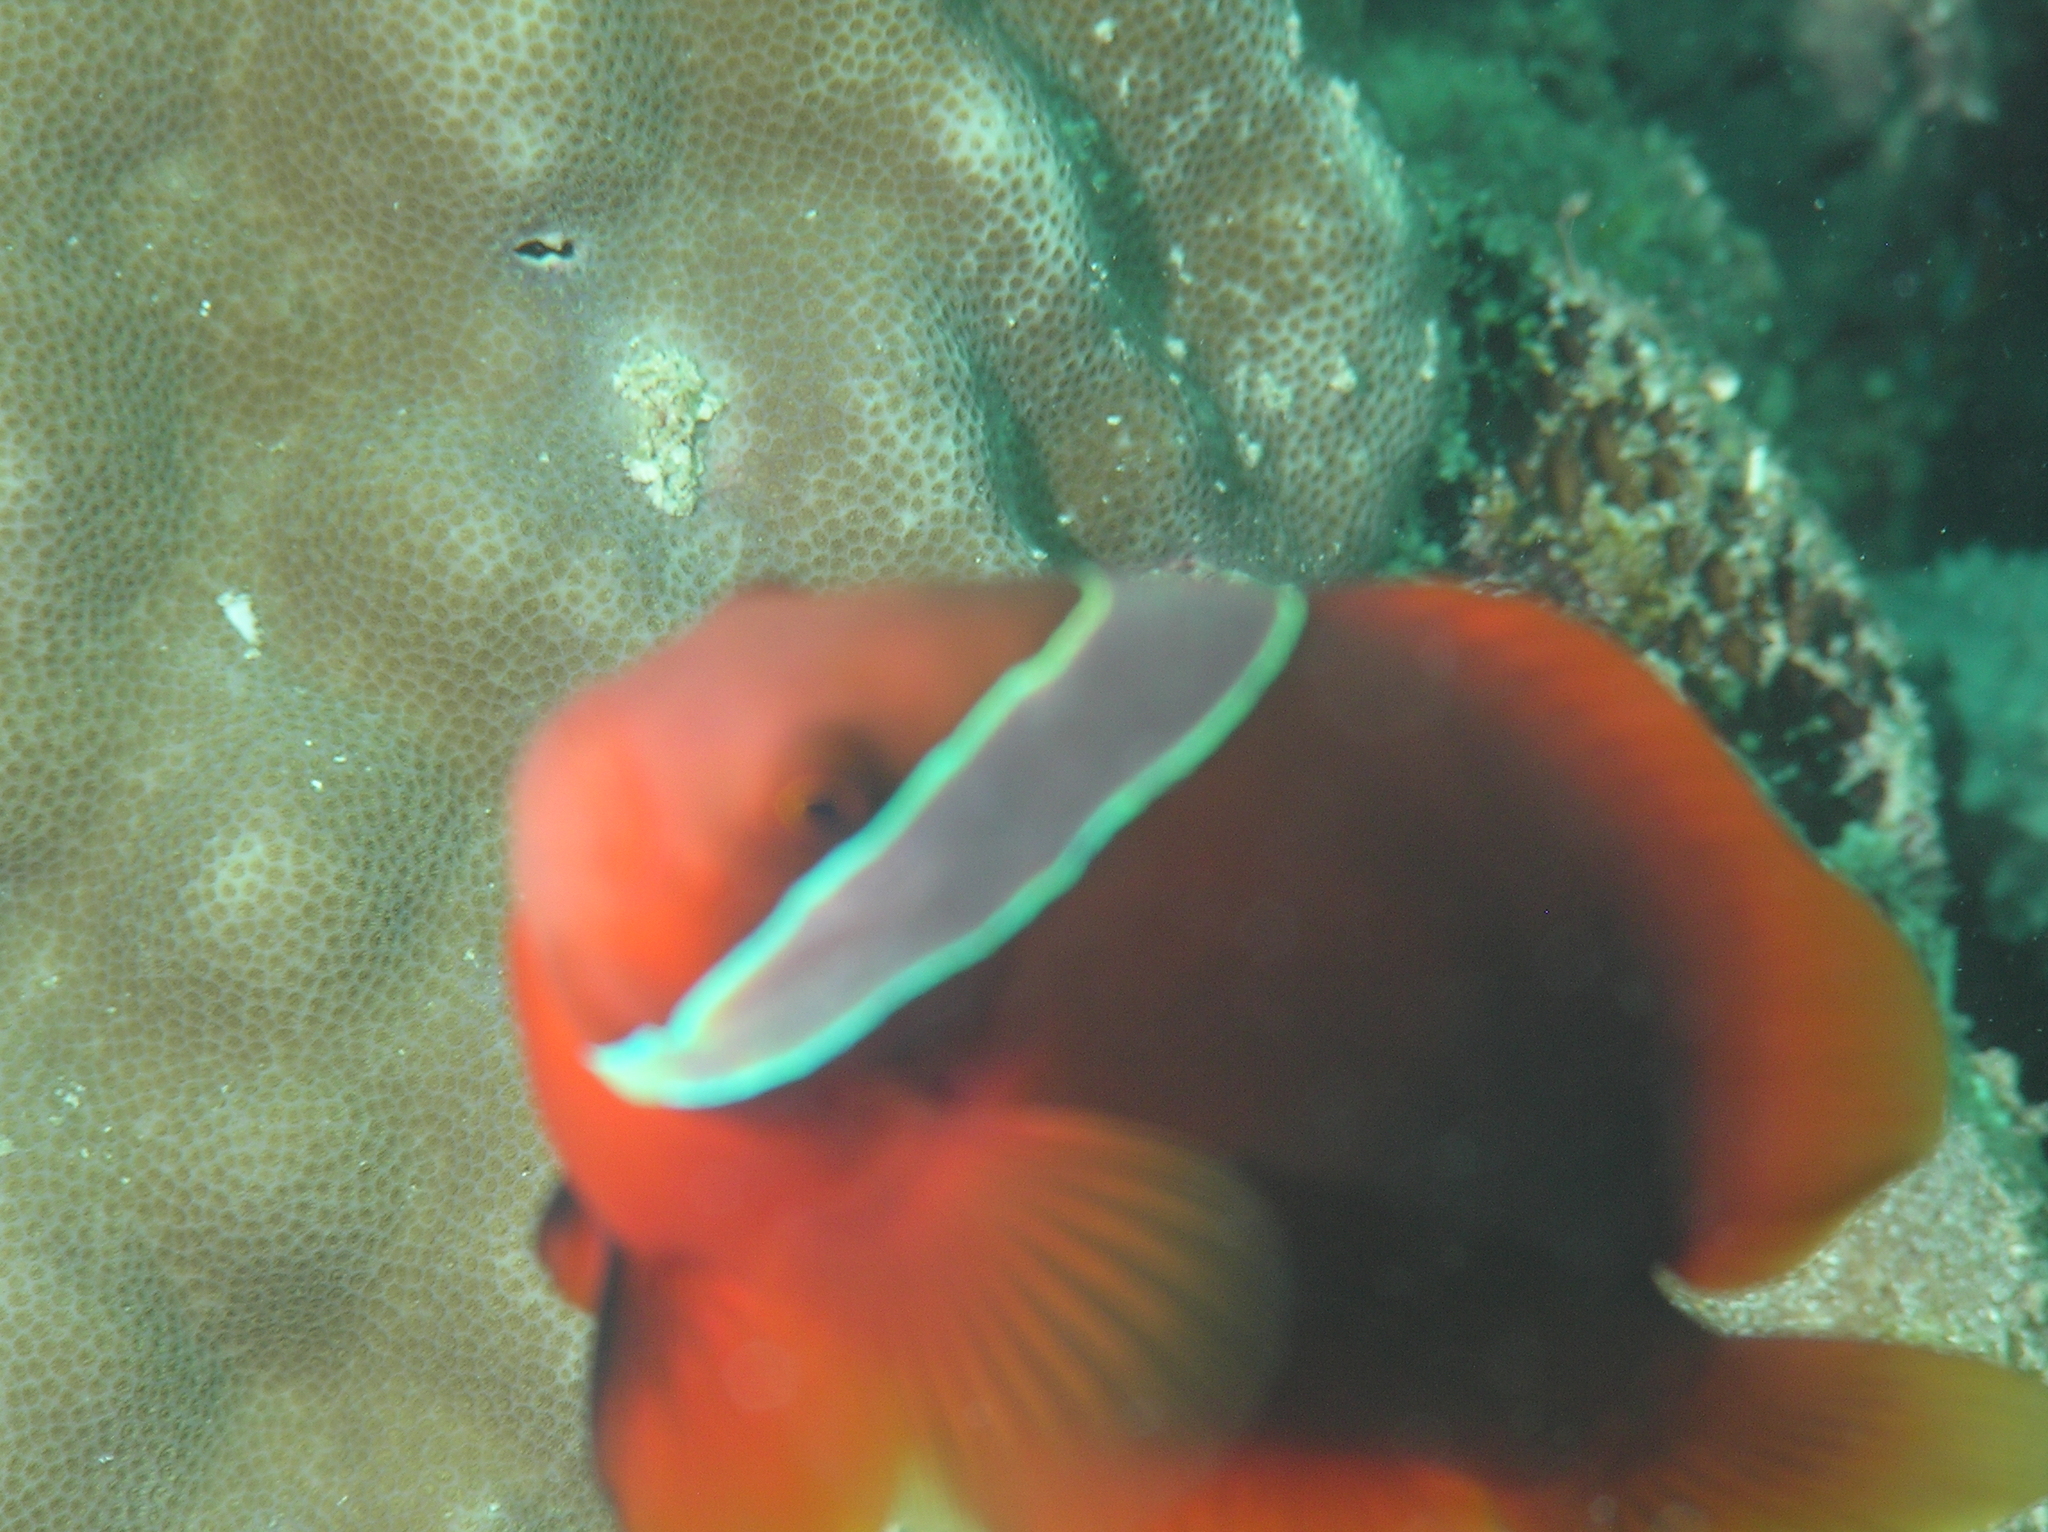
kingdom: Animalia
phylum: Chordata
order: Perciformes
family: Pomacentridae
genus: Amphiprion
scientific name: Amphiprion frenatus
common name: Tomato anemonefish
